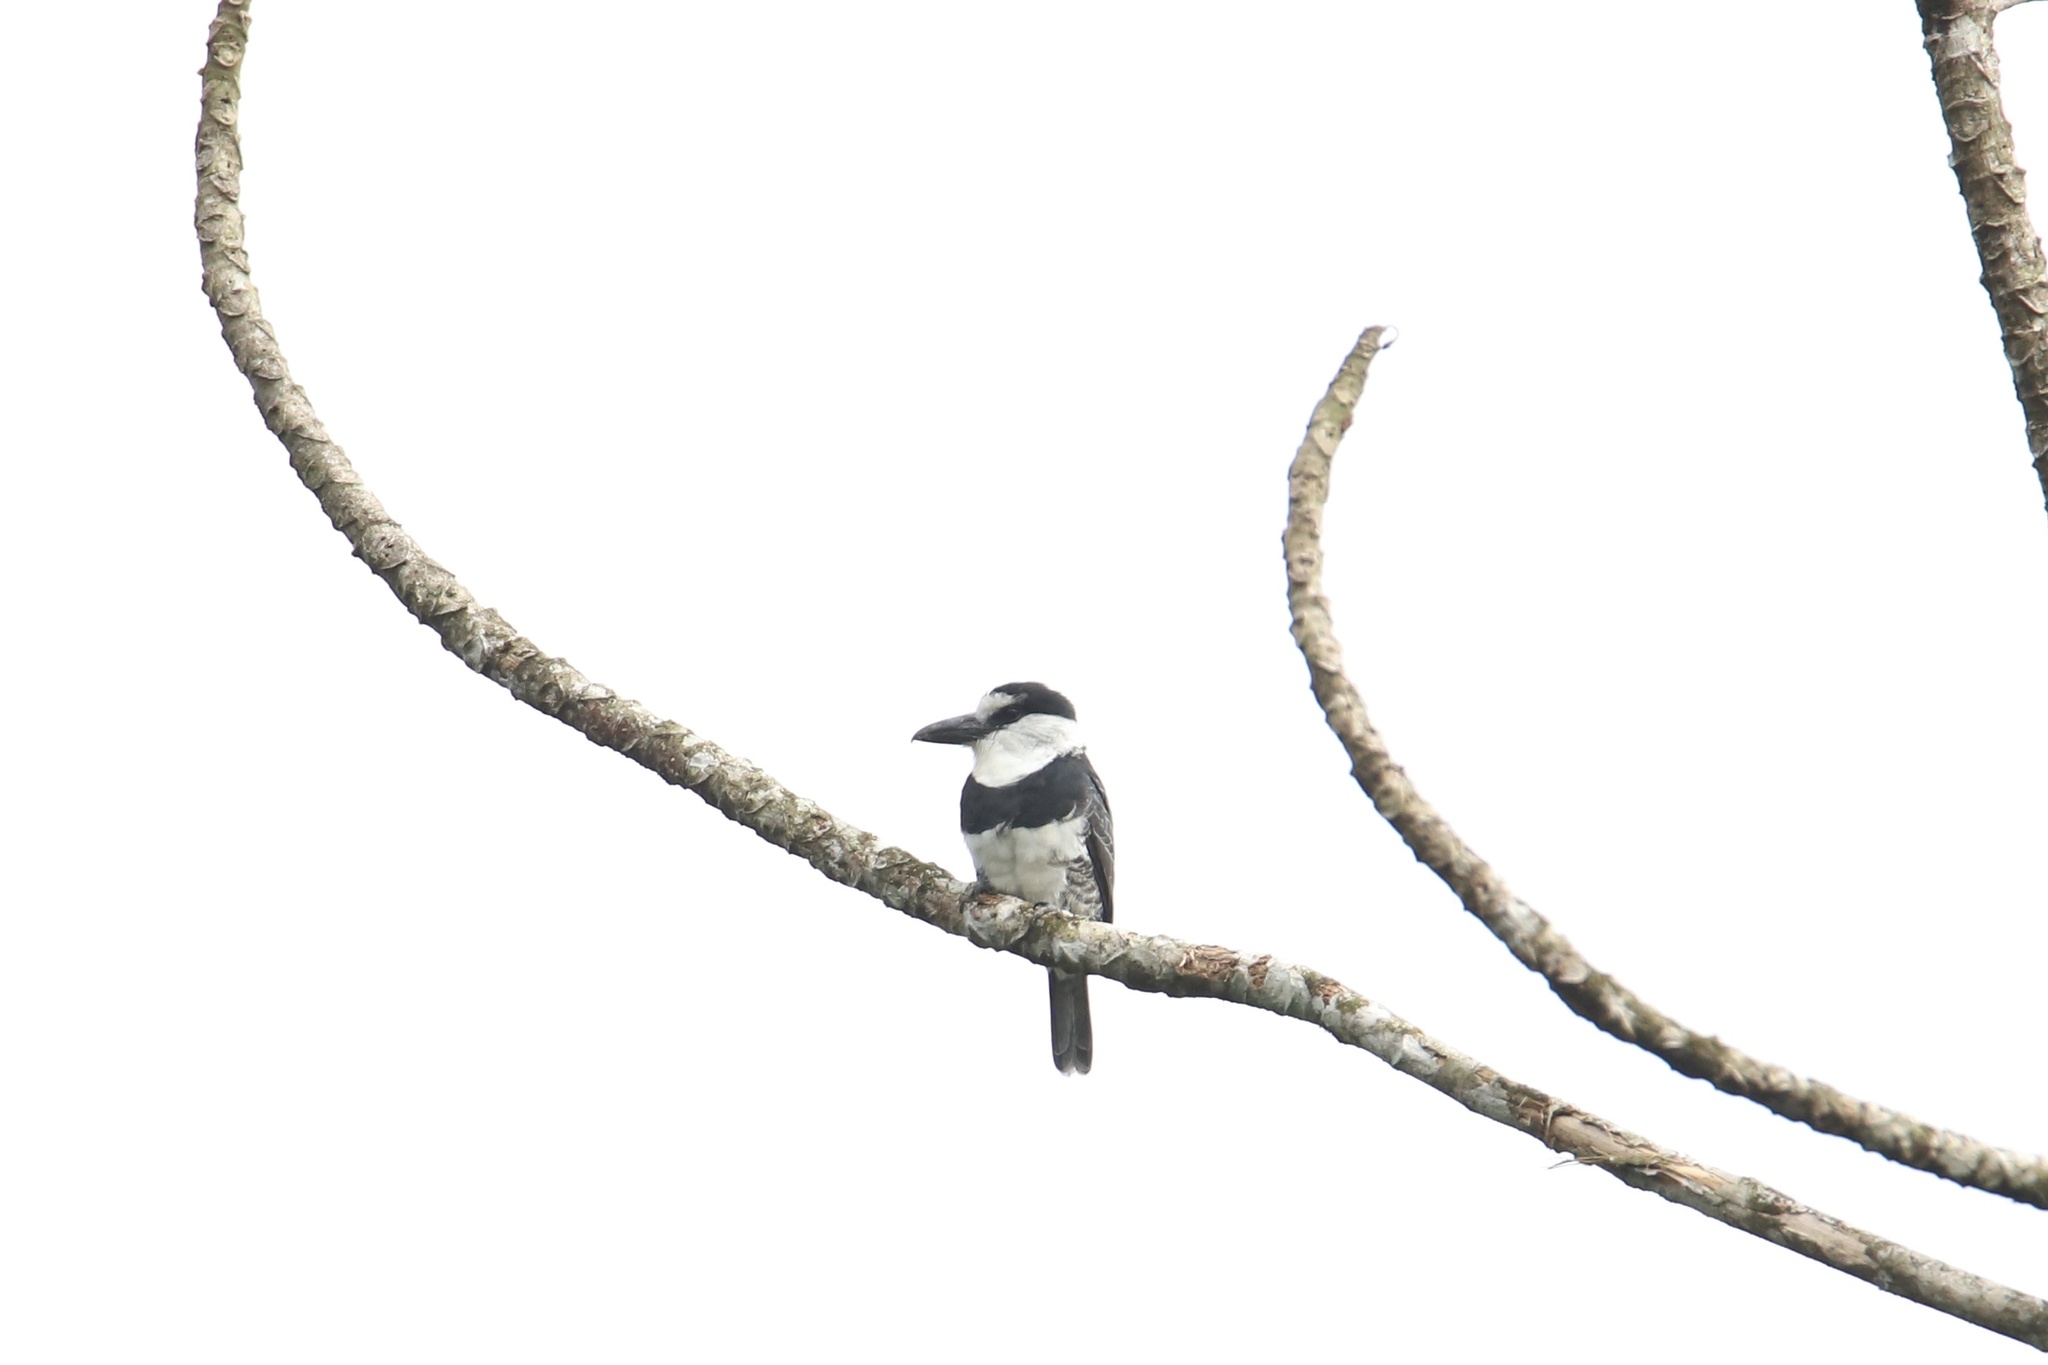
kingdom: Animalia
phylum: Chordata
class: Aves
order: Piciformes
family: Bucconidae
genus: Notharchus
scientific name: Notharchus hyperrhynchus
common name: White-necked puffbird
